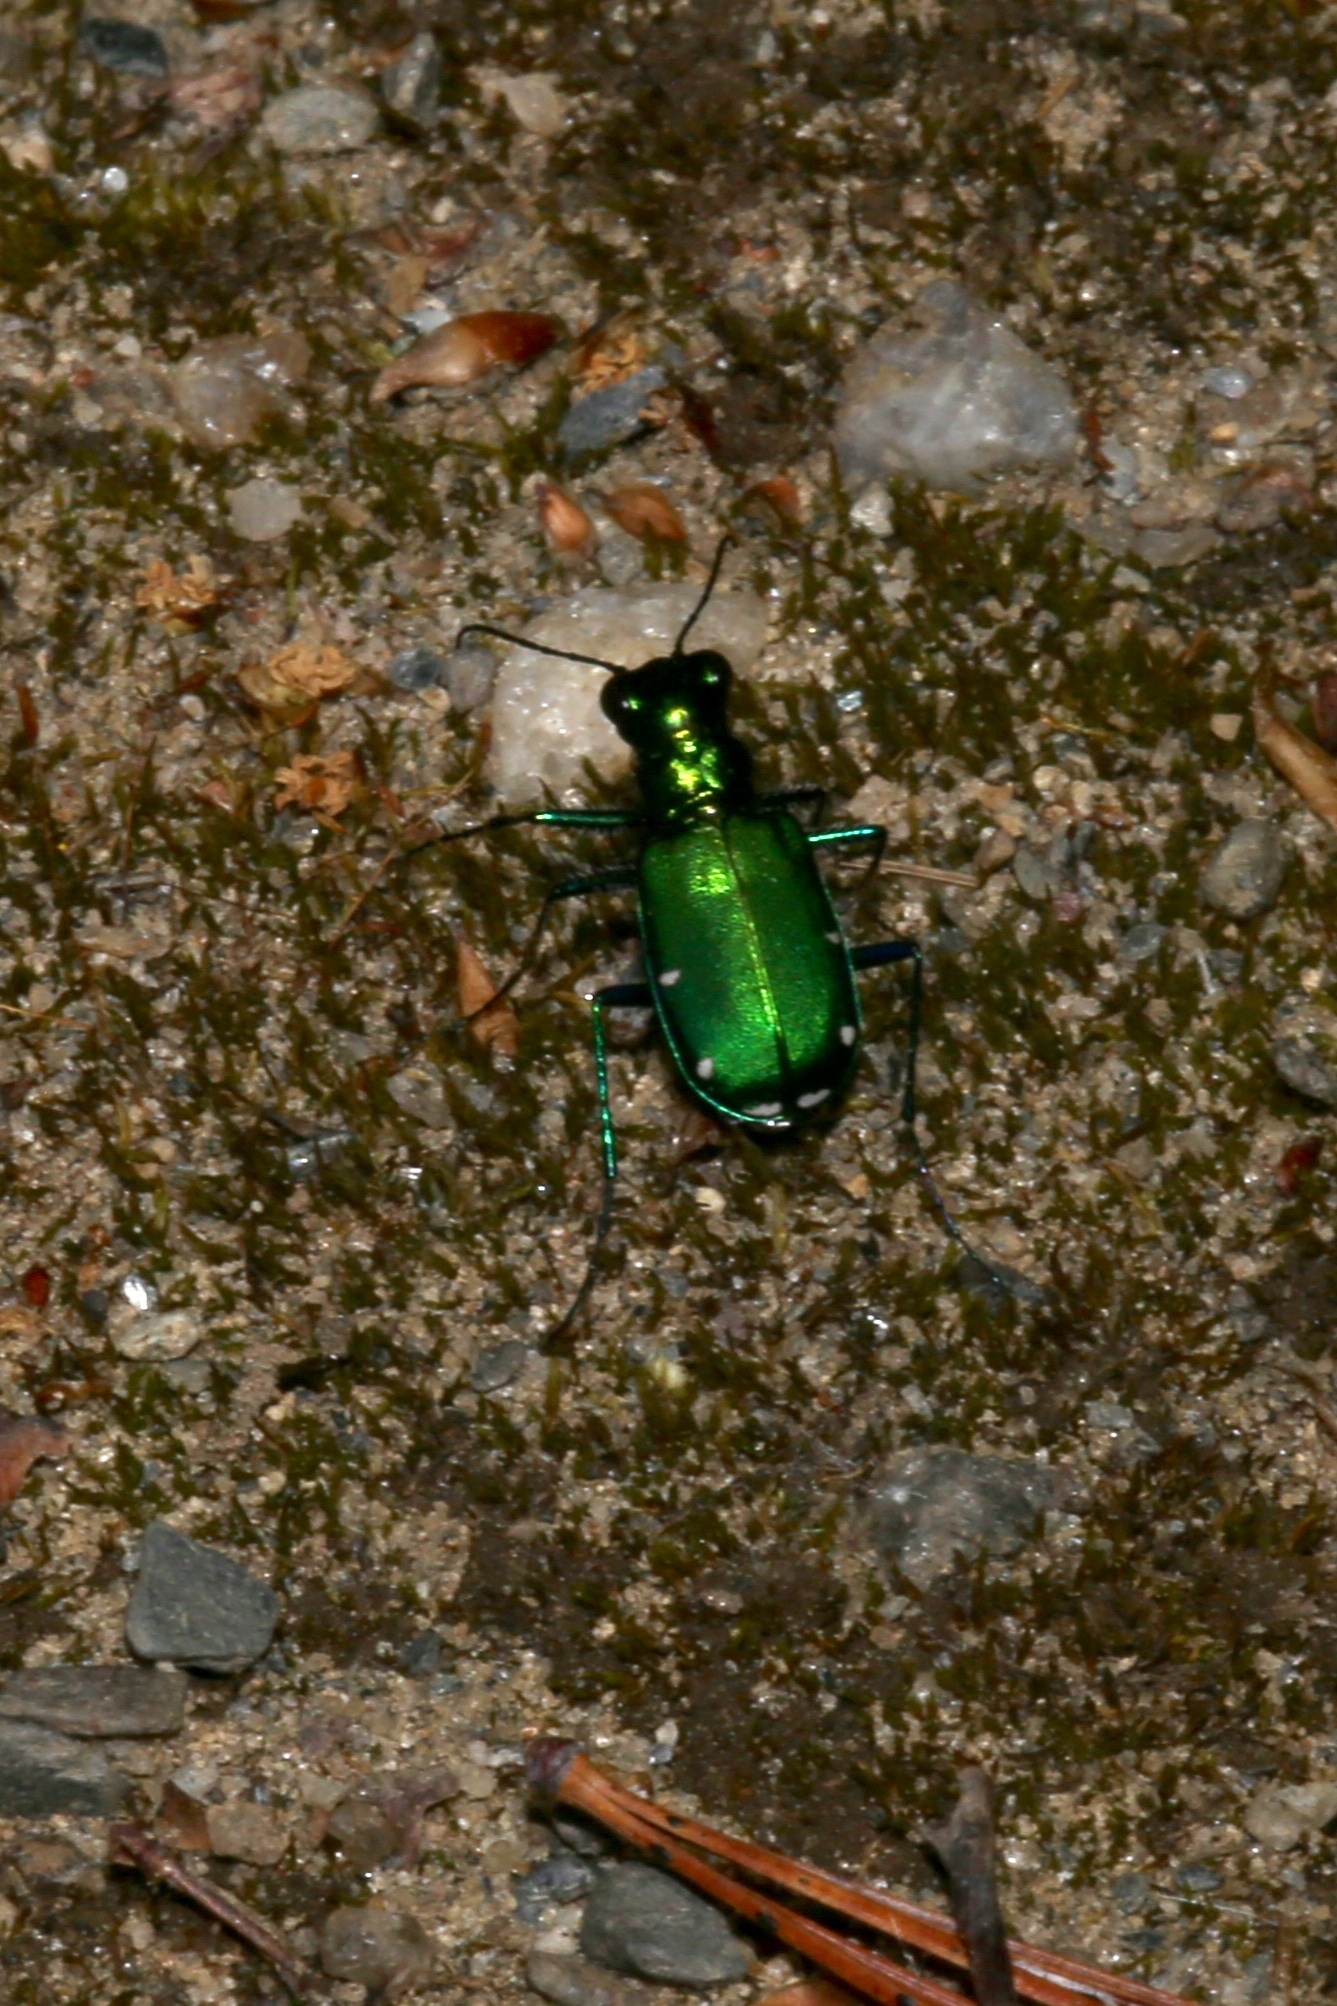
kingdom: Animalia
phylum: Arthropoda
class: Insecta
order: Coleoptera
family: Carabidae
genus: Cicindela
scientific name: Cicindela sexguttata
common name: Six-spotted tiger beetle
